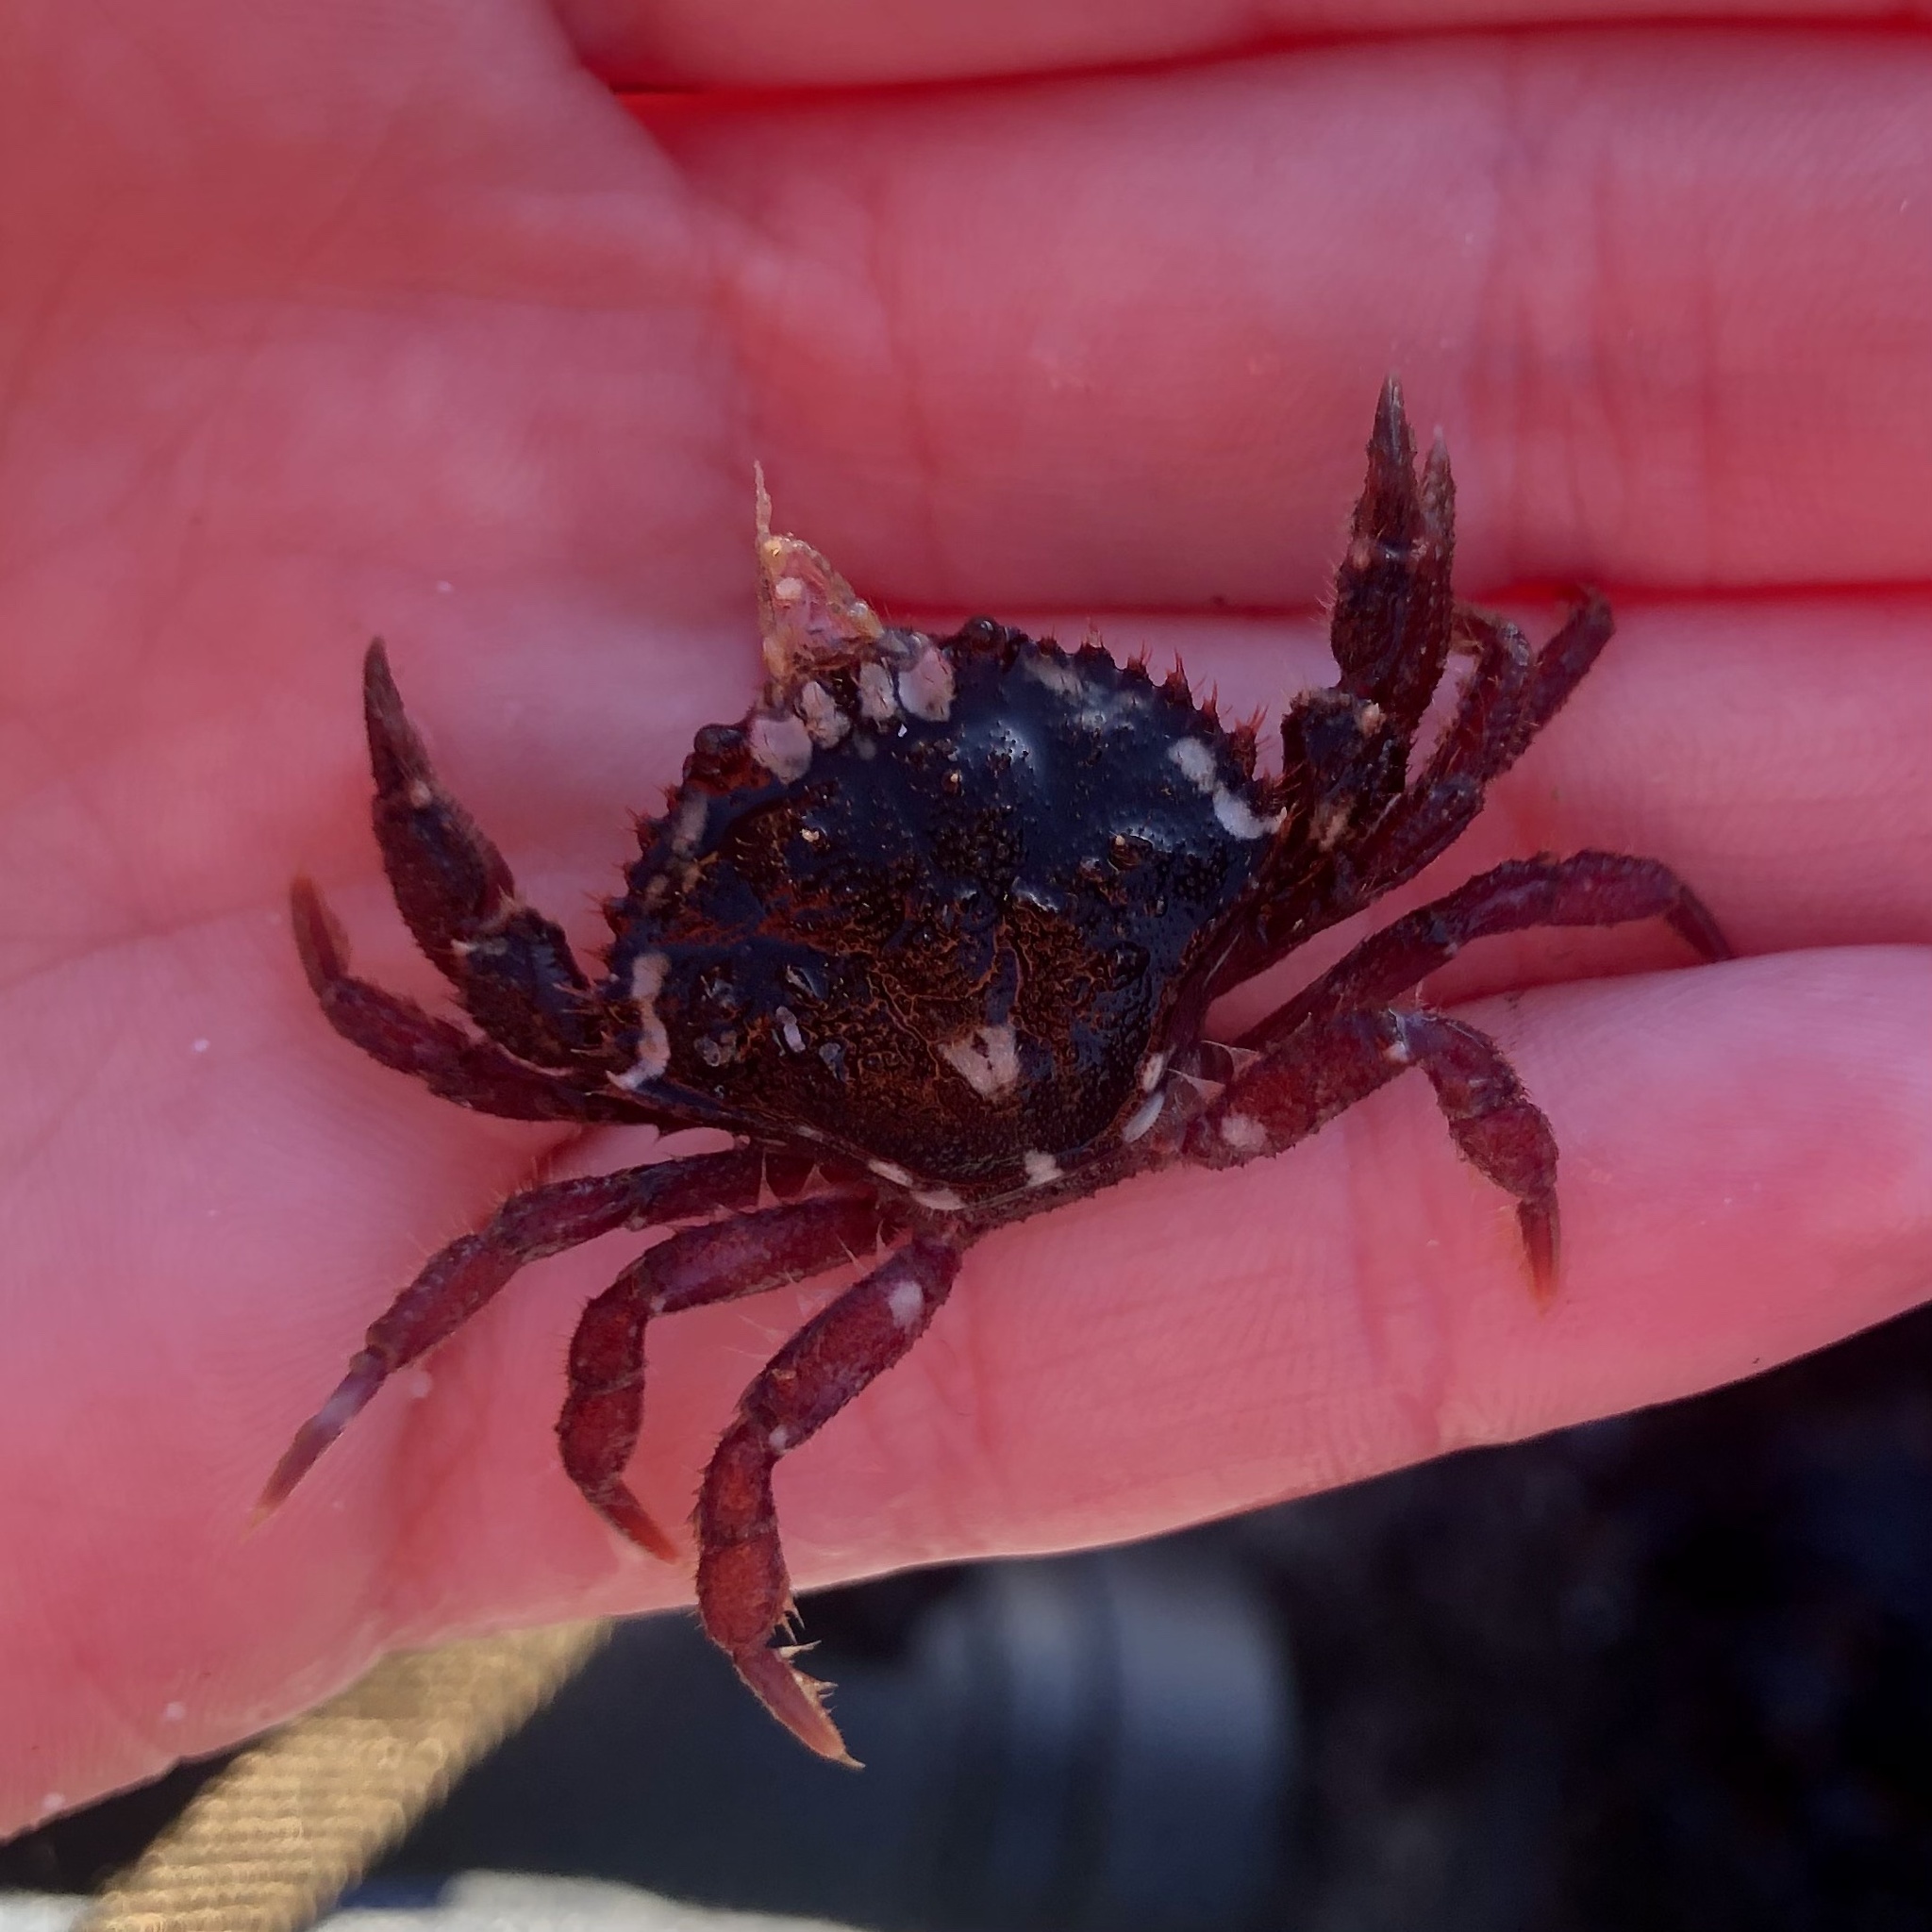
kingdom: Animalia
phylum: Arthropoda
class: Malacostraca
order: Decapoda
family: Cancridae
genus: Romaleon
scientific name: Romaleon antennarium
